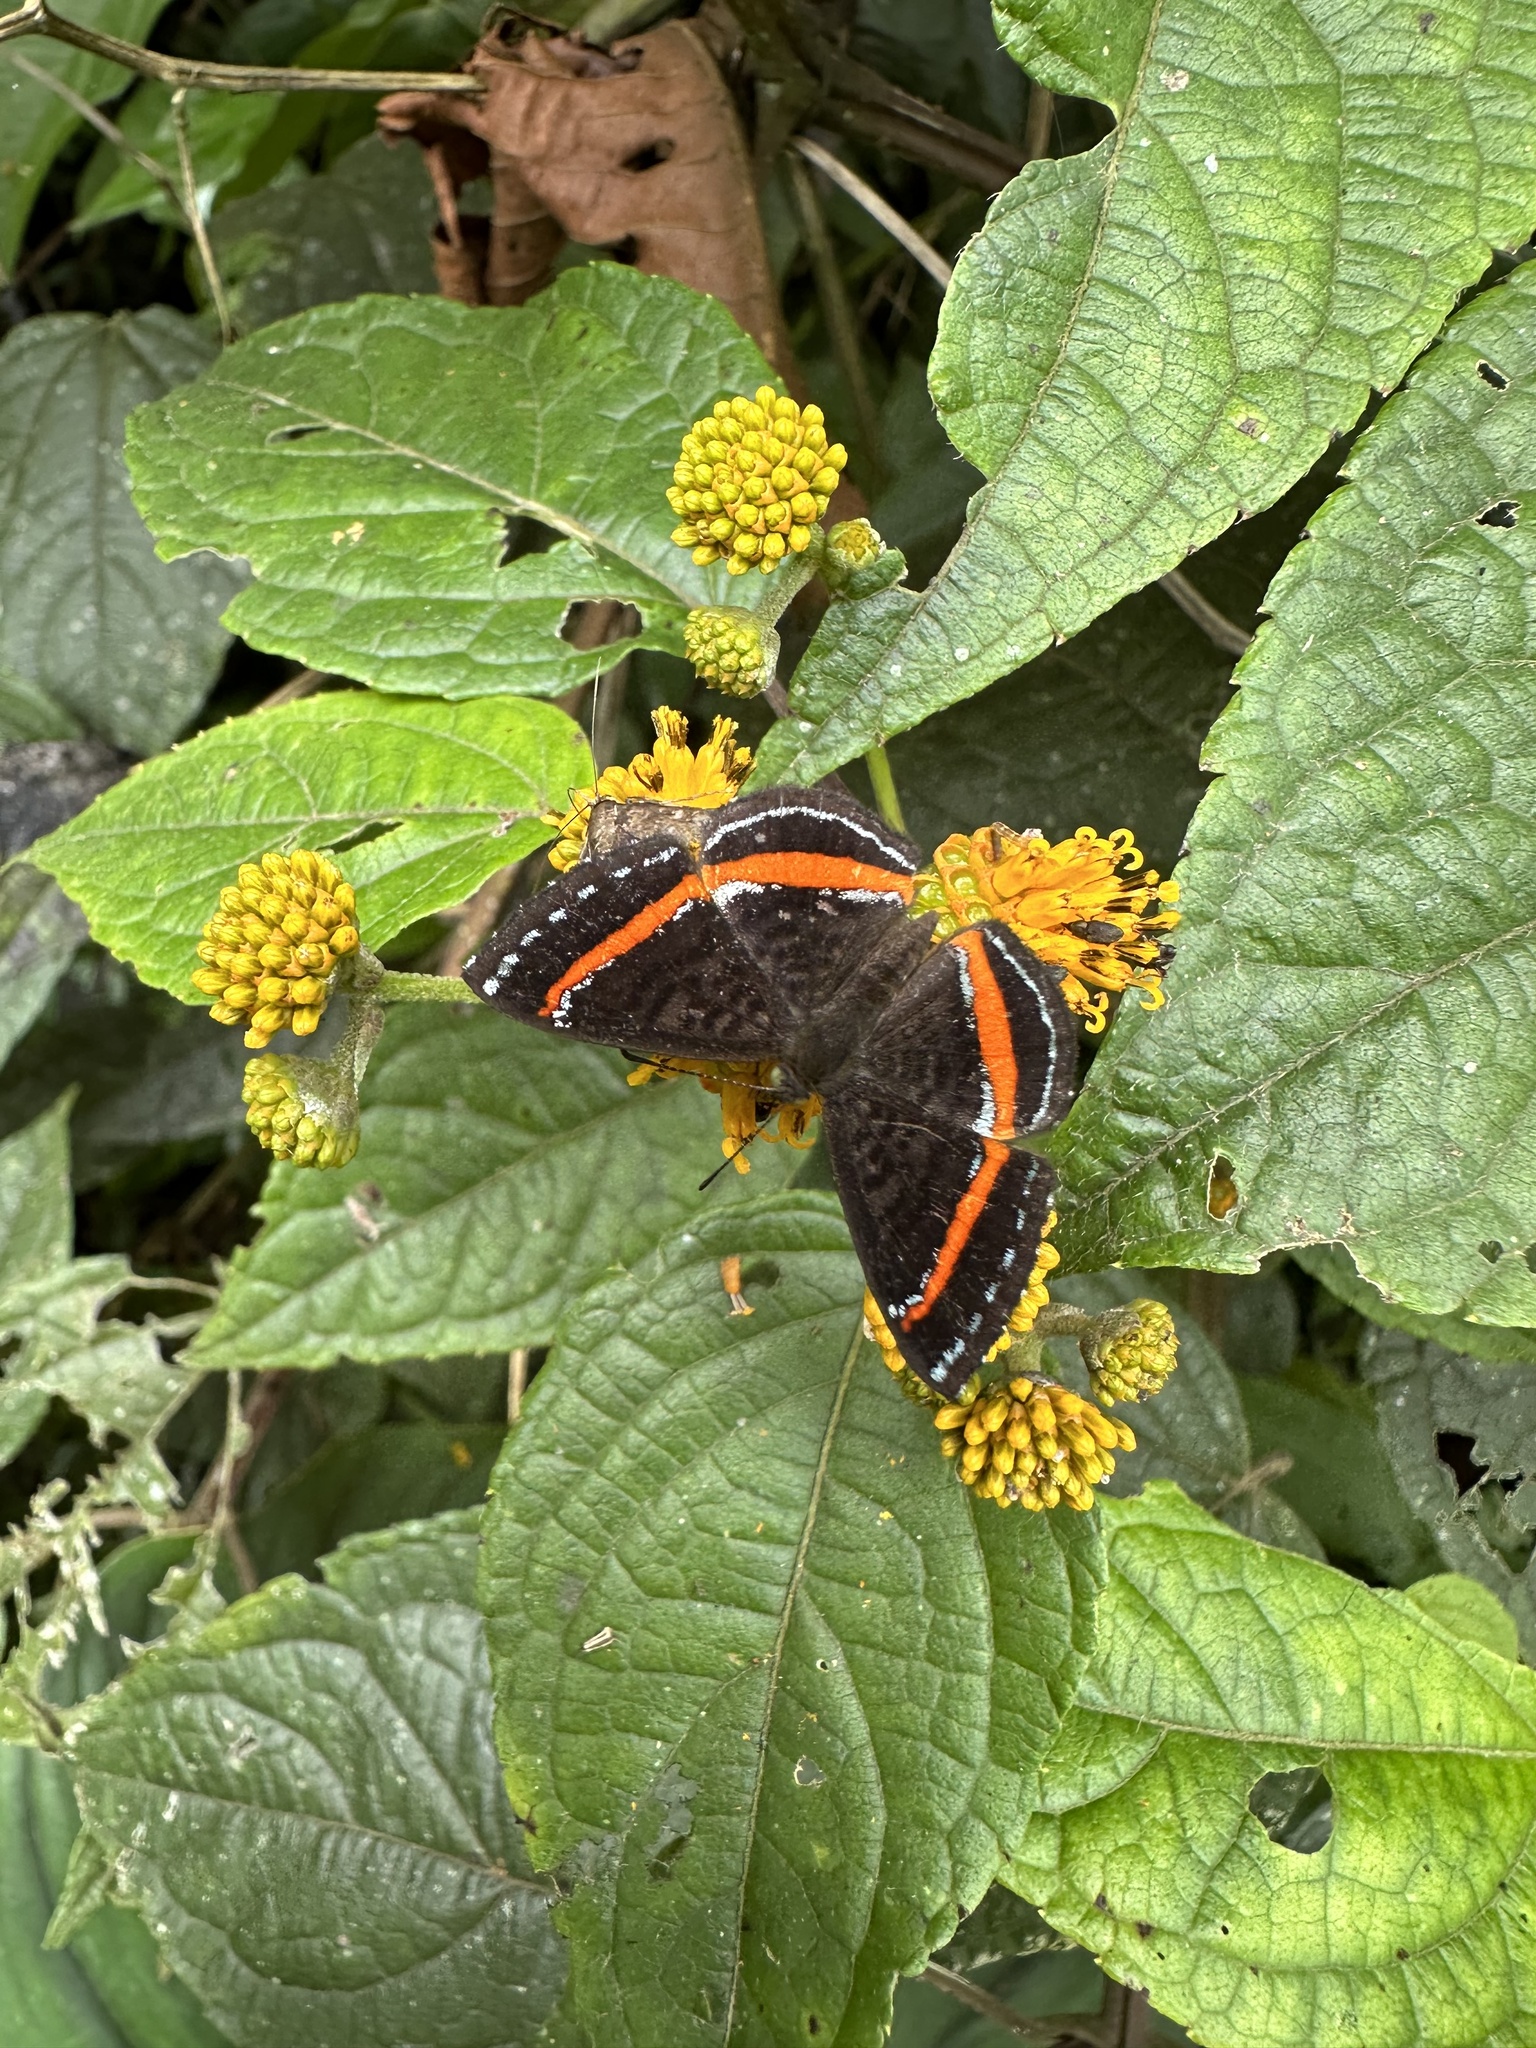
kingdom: Animalia
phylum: Arthropoda
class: Insecta
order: Lepidoptera
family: Riodinidae
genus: Crocozona
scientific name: Crocozona coecias
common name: Orange-banded gem
